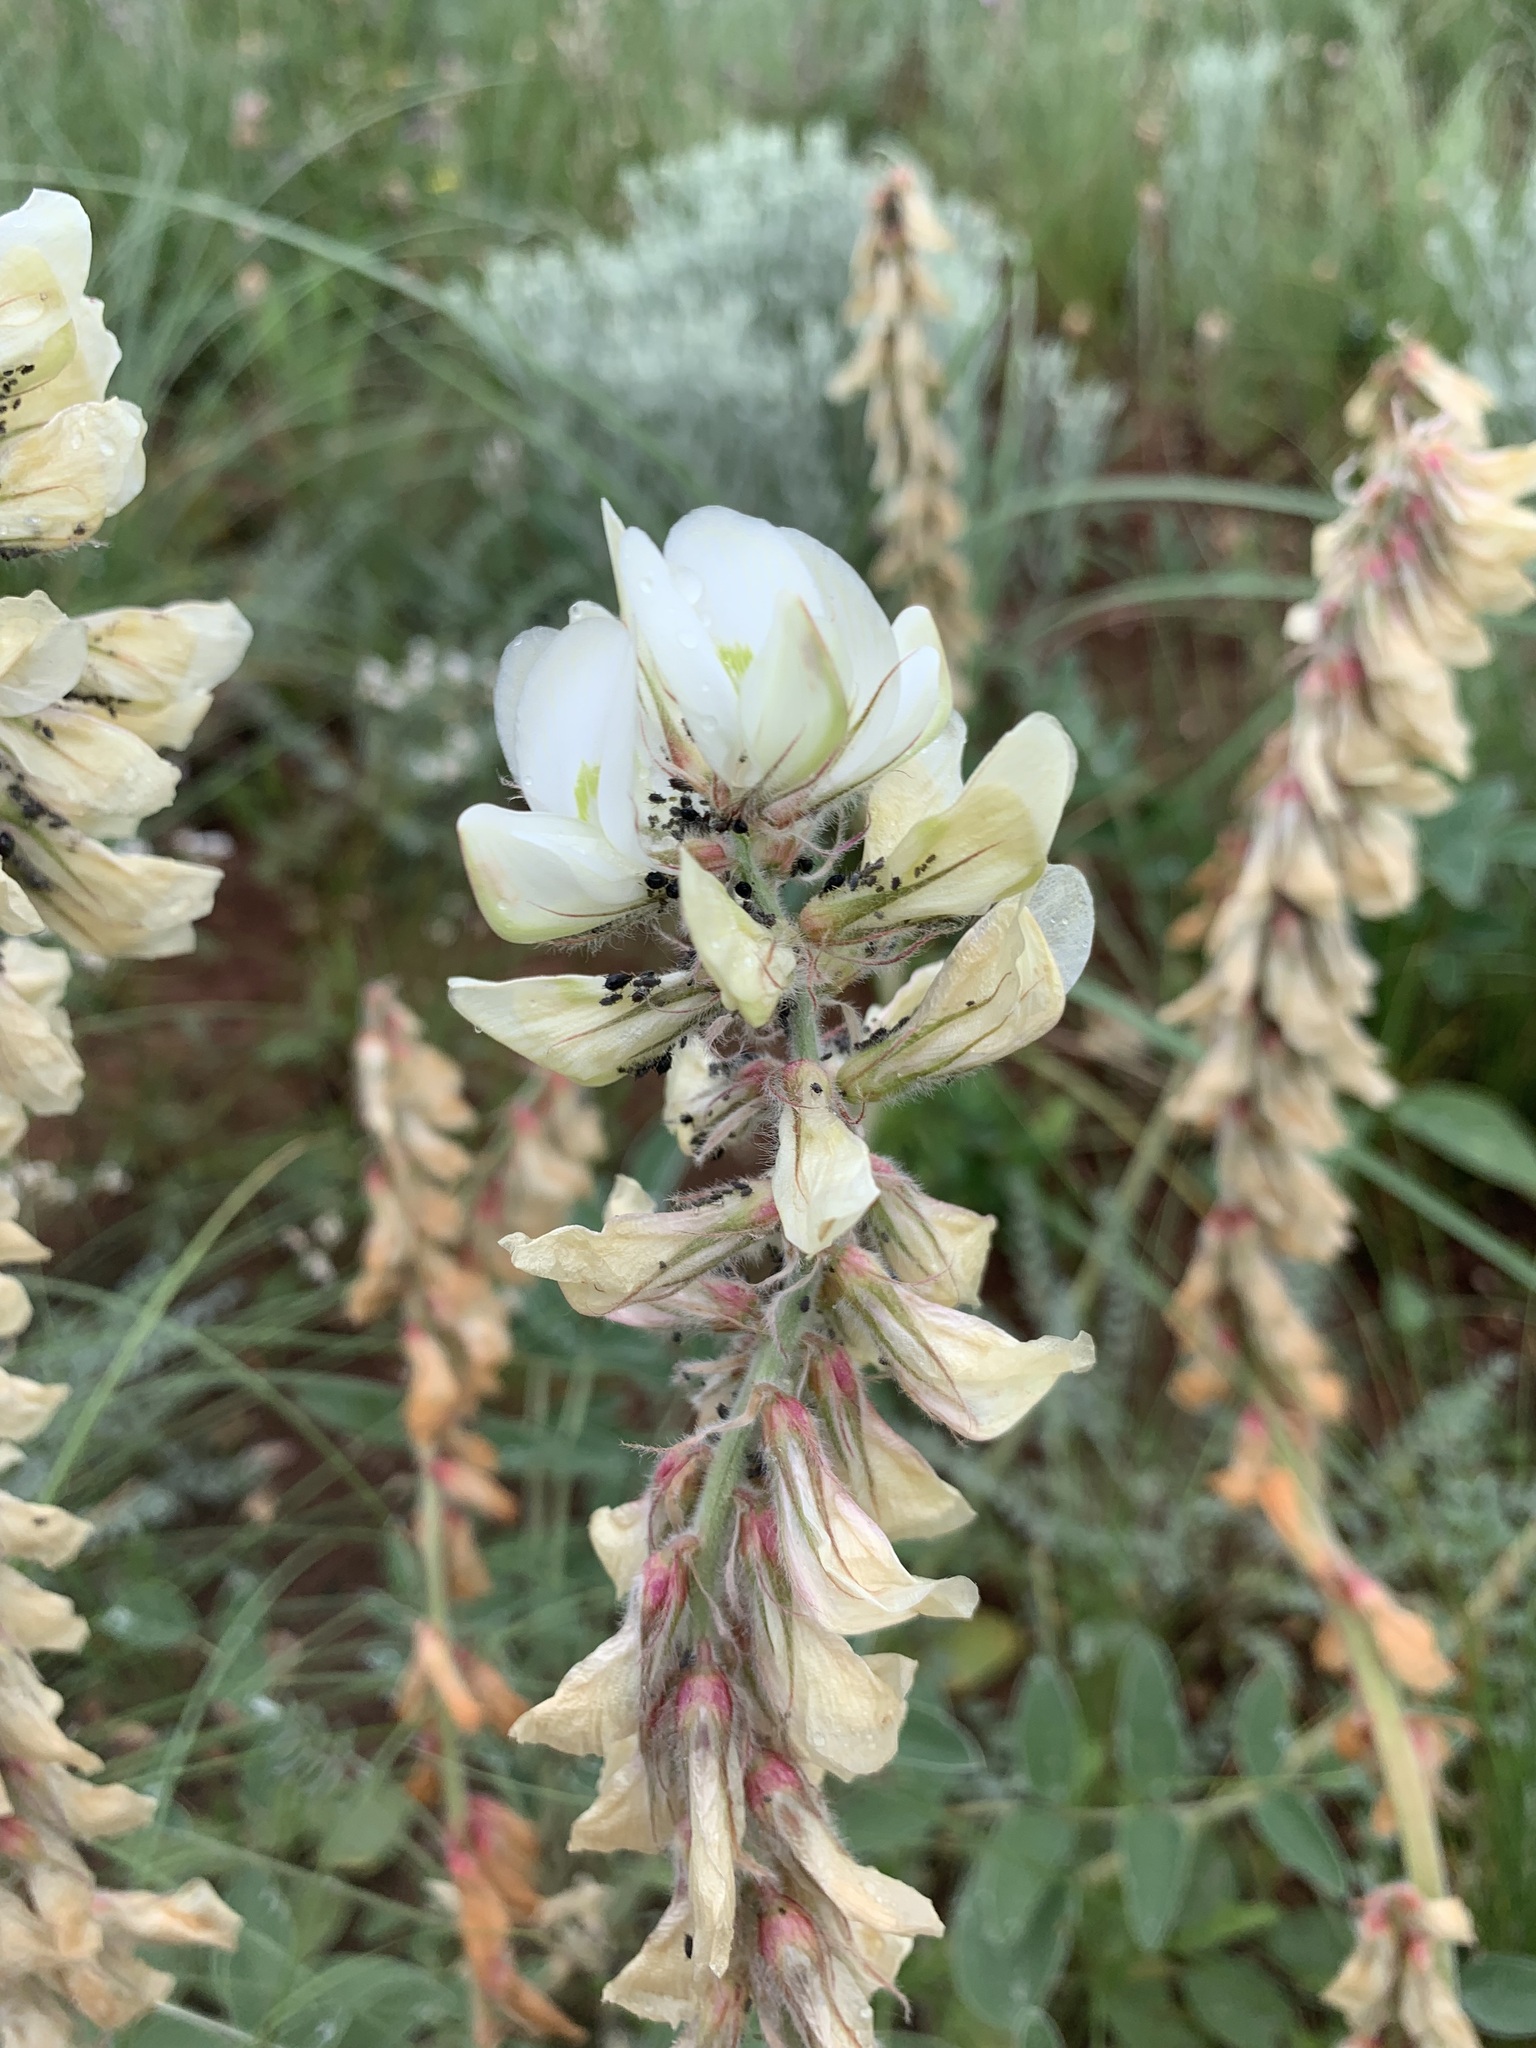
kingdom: Plantae
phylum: Tracheophyta
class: Magnoliopsida
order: Fabales
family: Fabaceae
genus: Hedysarum
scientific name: Hedysarum grandiflorum
